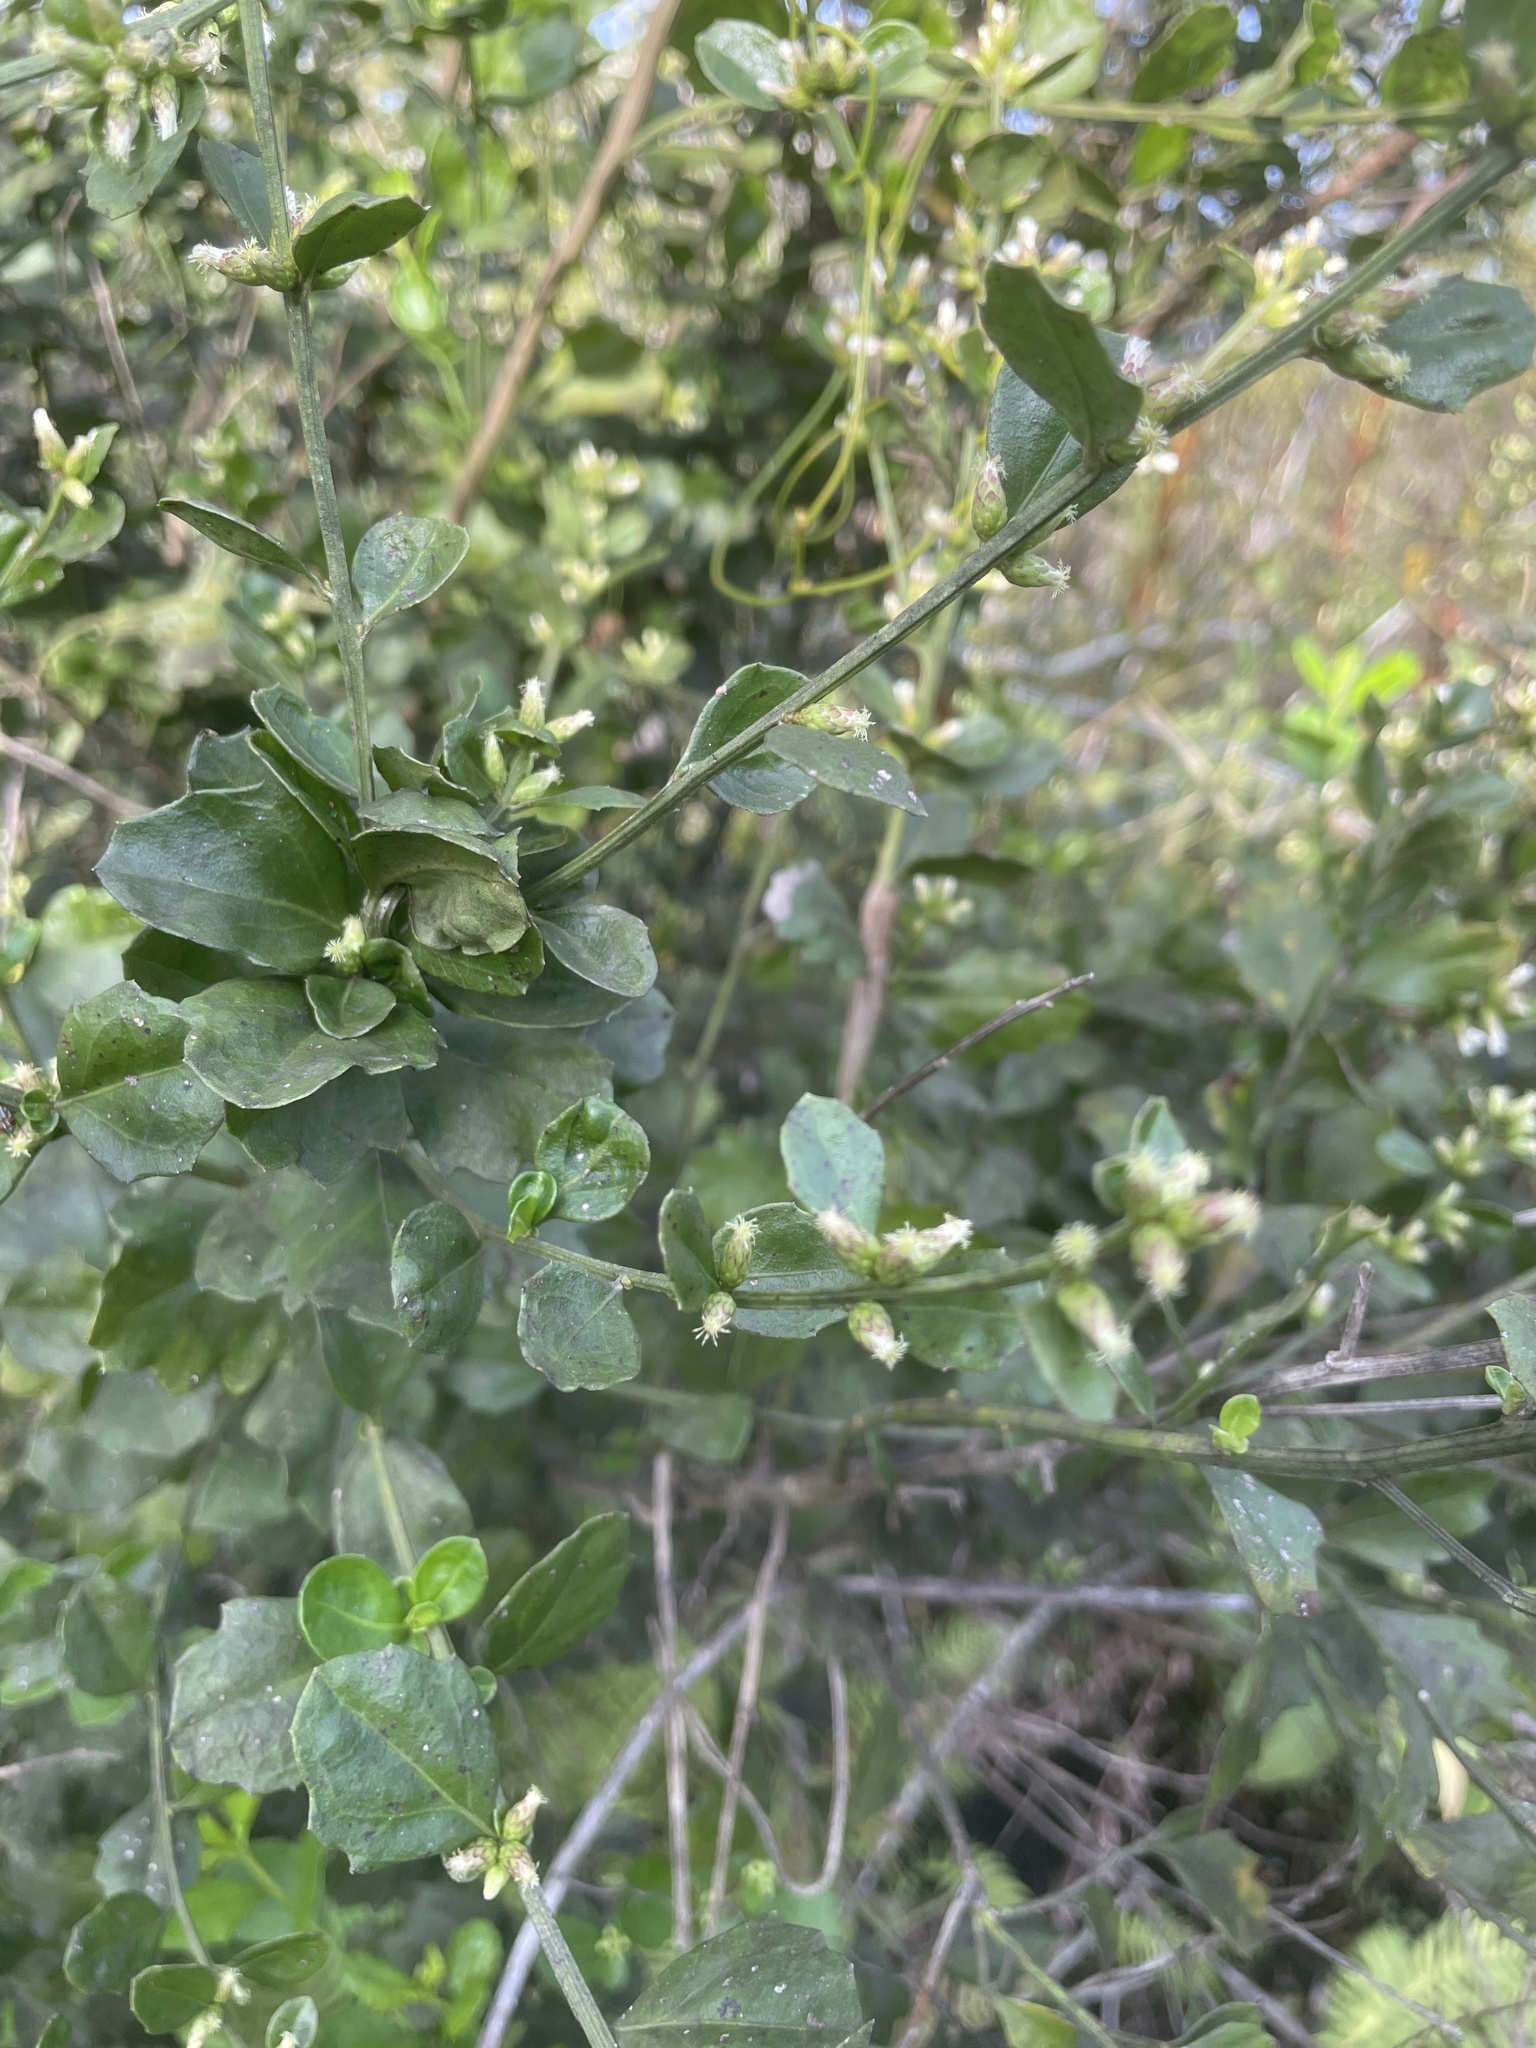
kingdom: Plantae
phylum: Tracheophyta
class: Magnoliopsida
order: Asterales
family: Asteraceae
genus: Baccharis
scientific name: Baccharis glomeruliflora
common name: Silverling groundsel bush
